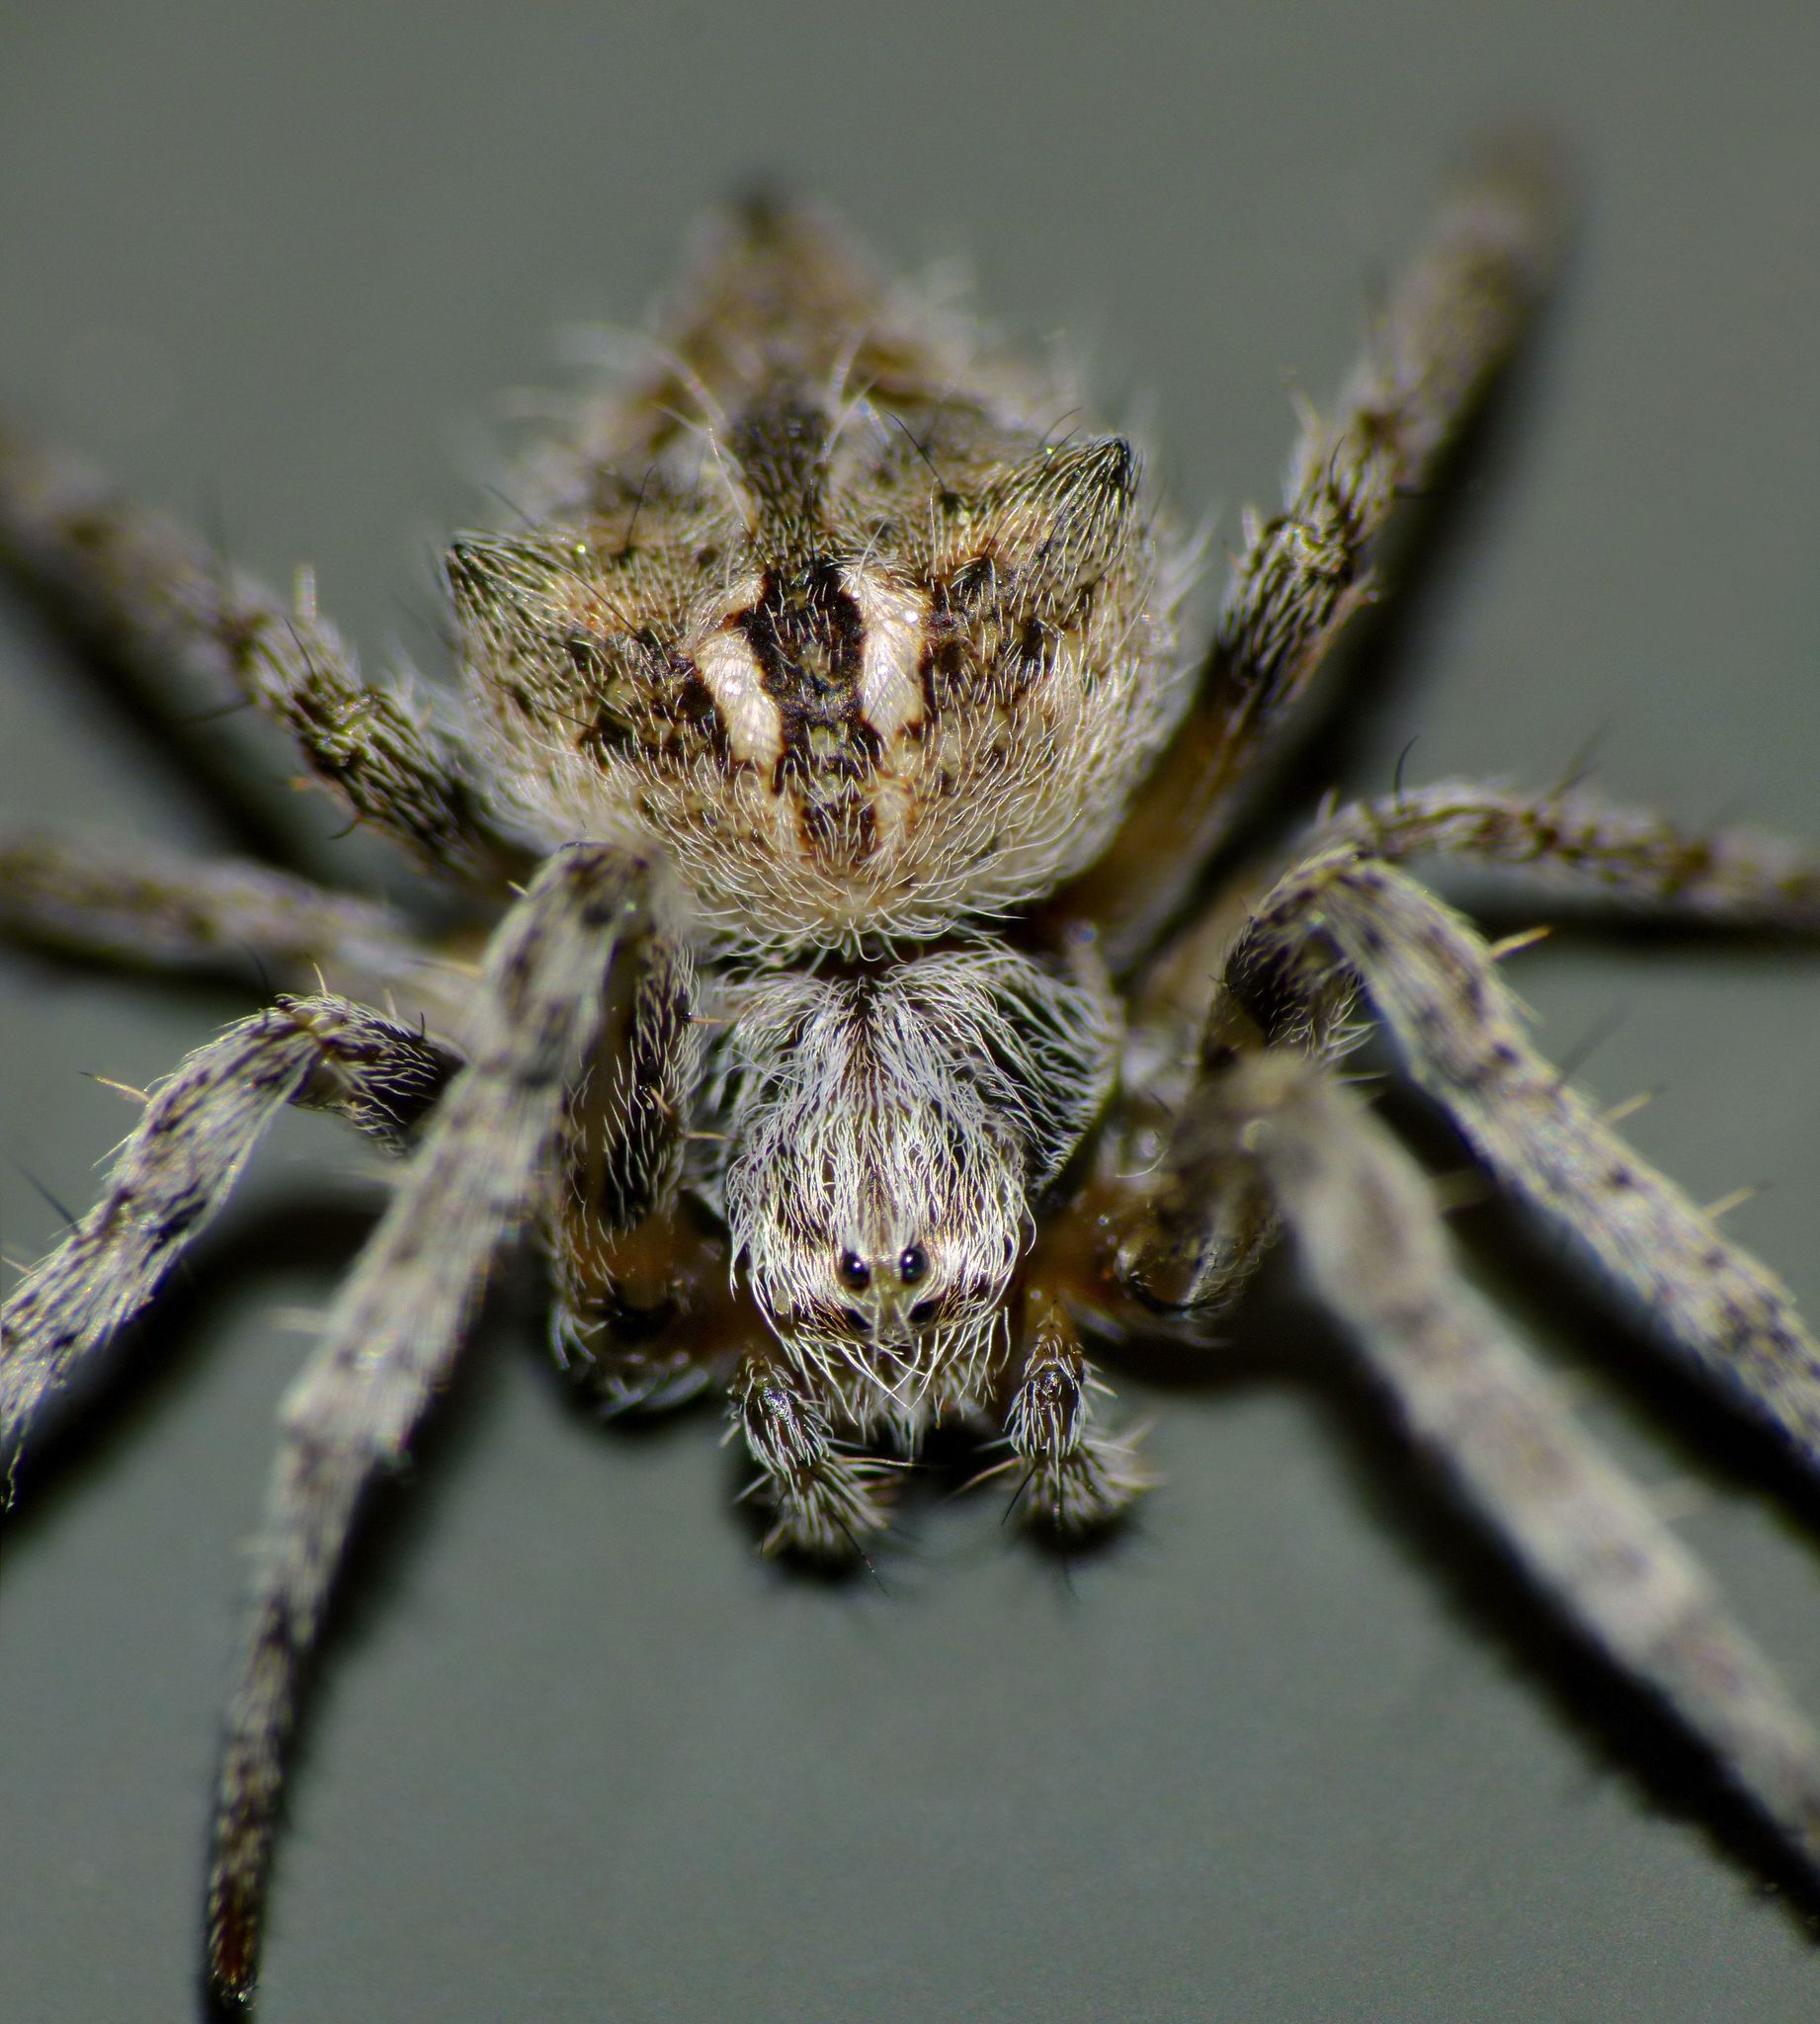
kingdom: Animalia
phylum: Arthropoda
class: Arachnida
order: Araneae
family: Araneidae
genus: Backobourkia
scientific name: Backobourkia brouni
